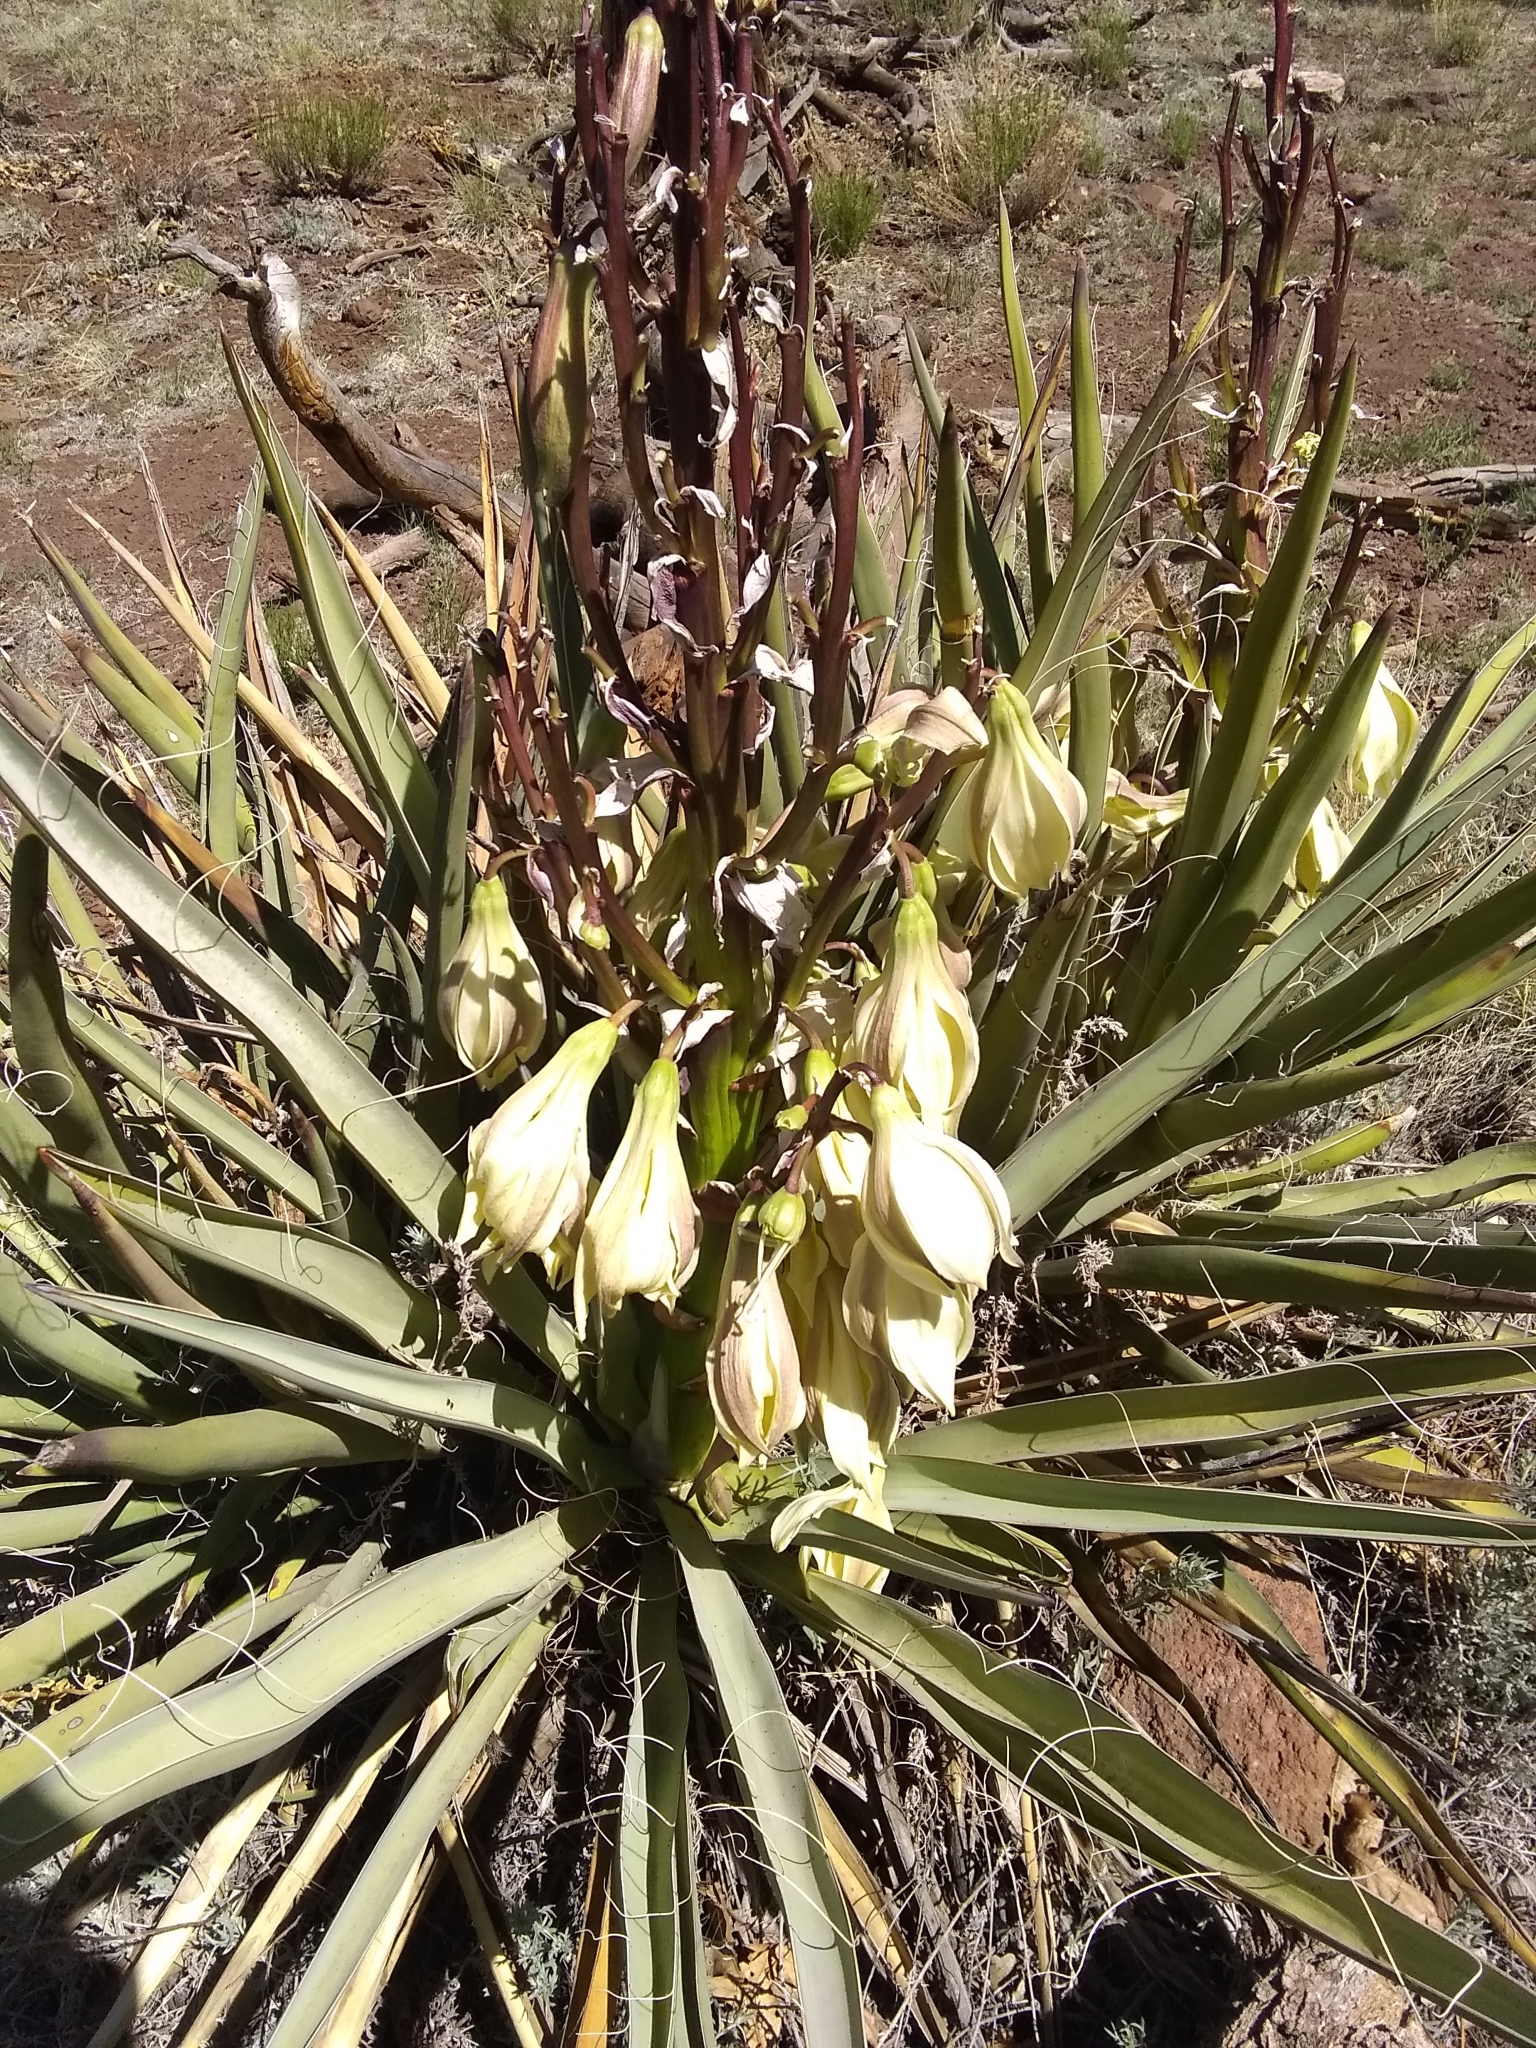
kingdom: Plantae
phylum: Tracheophyta
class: Liliopsida
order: Asparagales
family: Asparagaceae
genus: Yucca
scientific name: Yucca baccata
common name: Banana yucca
